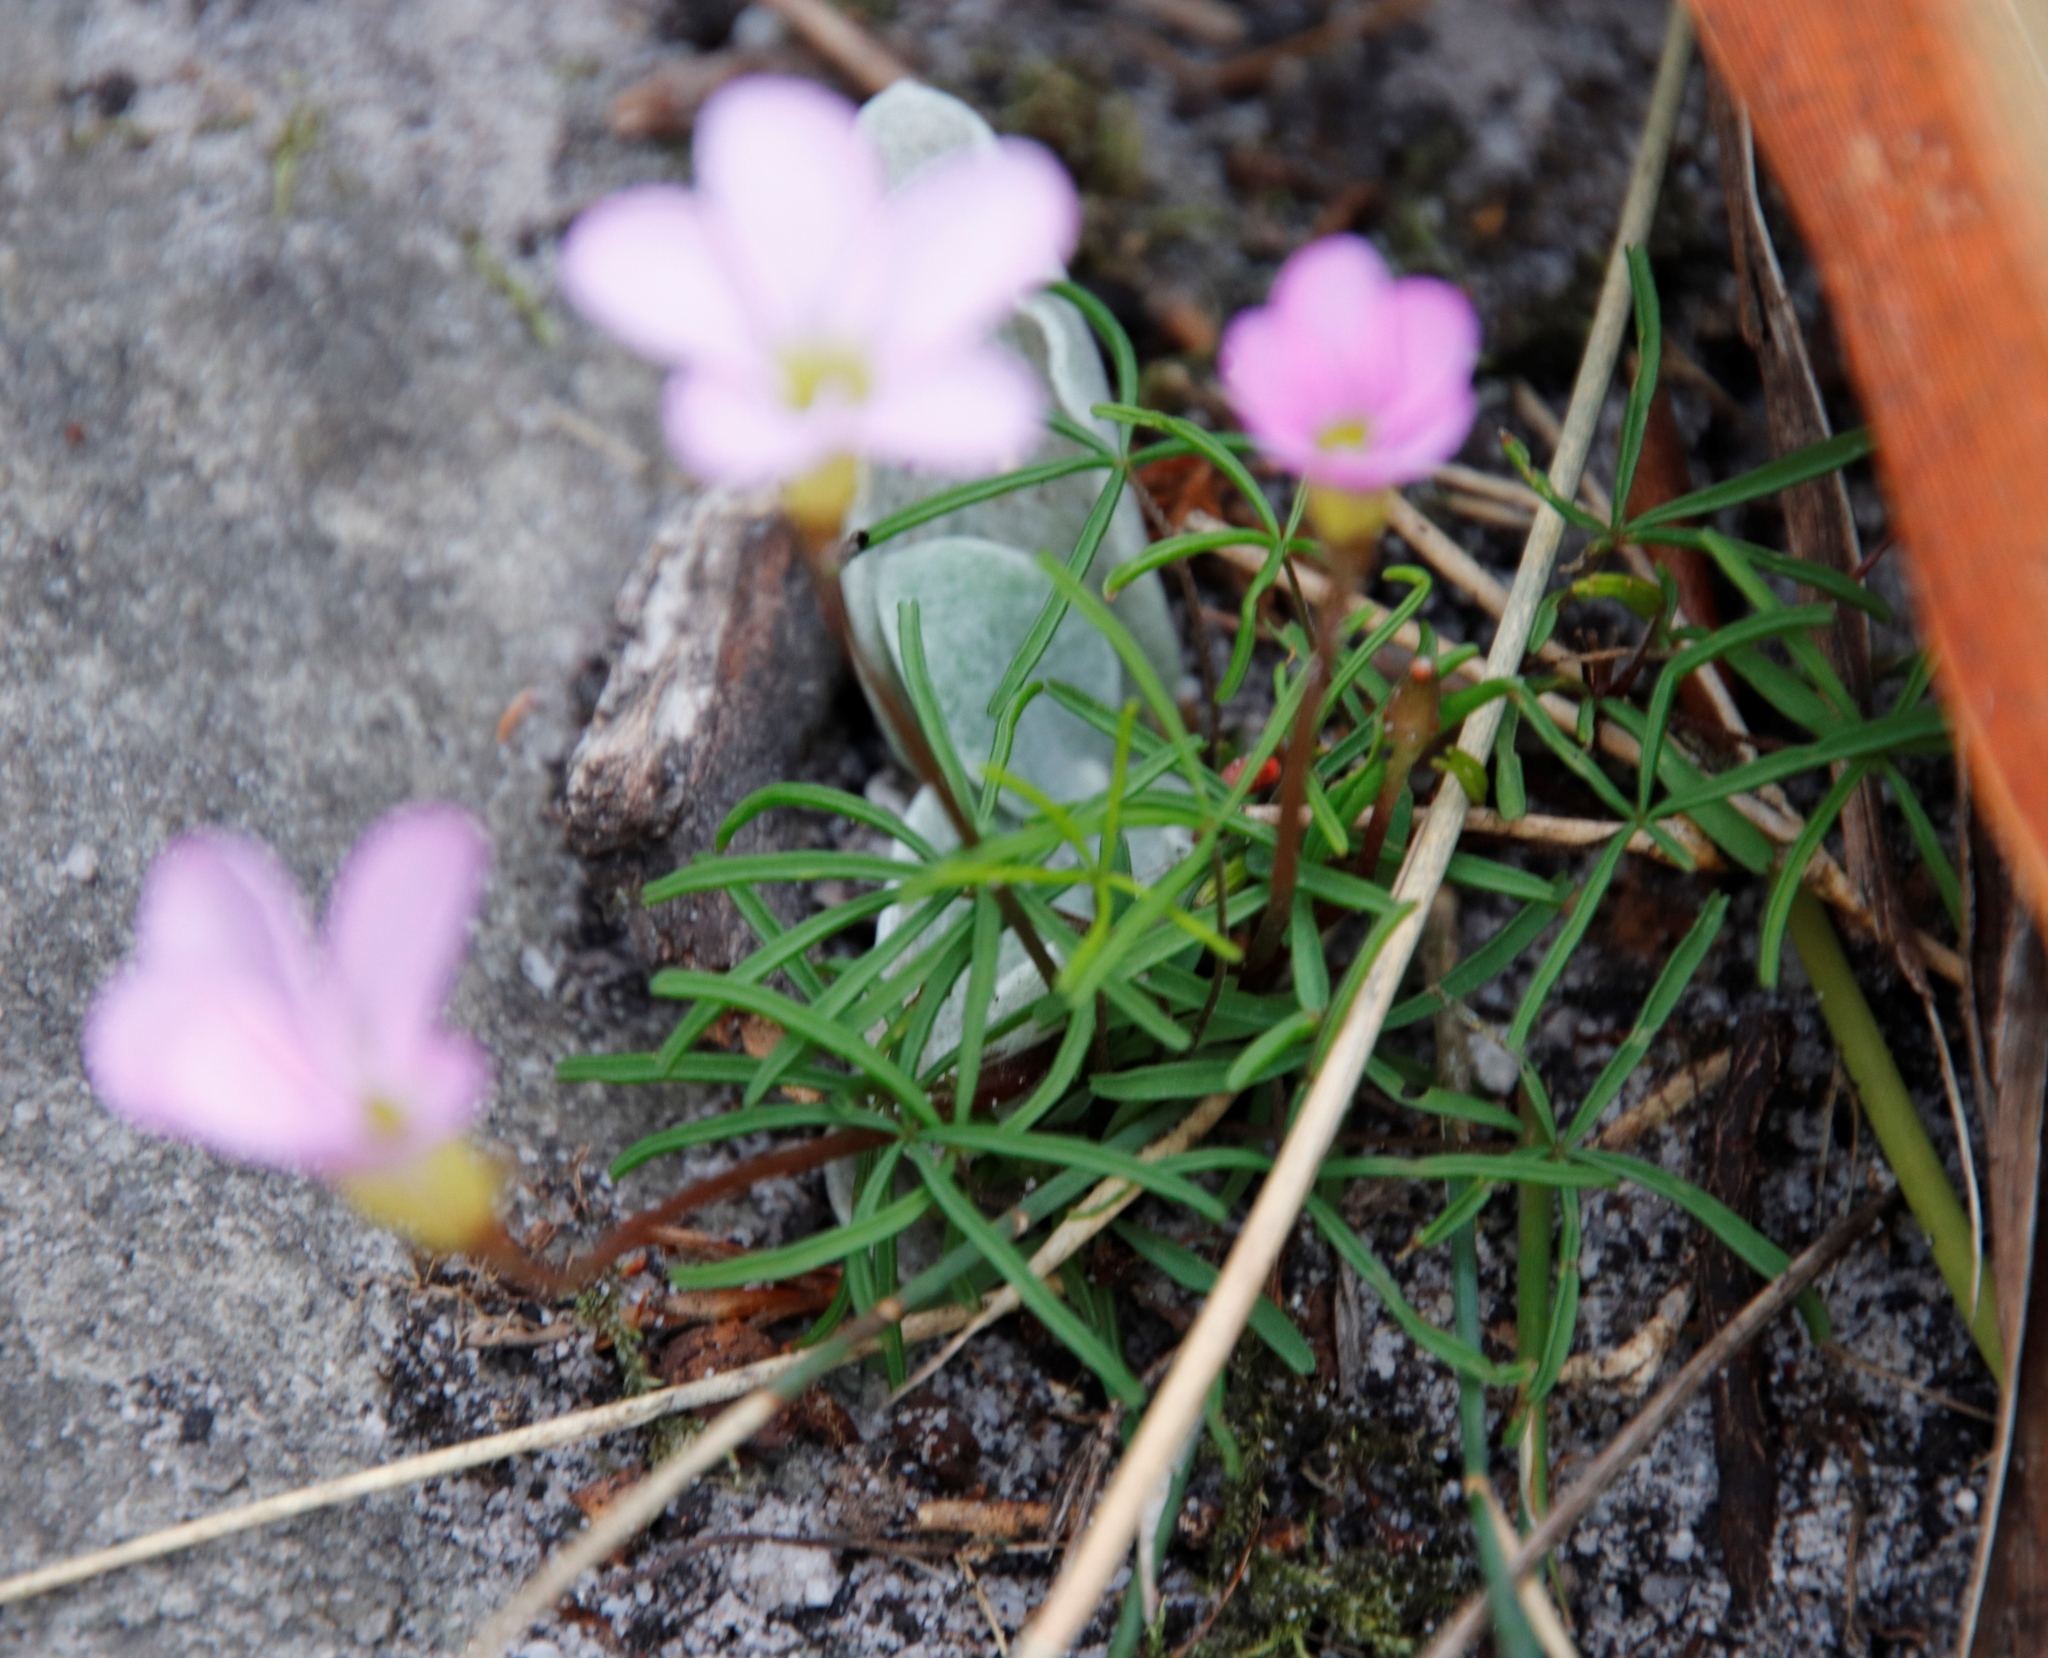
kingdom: Plantae
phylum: Tracheophyta
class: Magnoliopsida
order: Oxalidales
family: Oxalidaceae
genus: Oxalis
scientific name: Oxalis polyphylla
